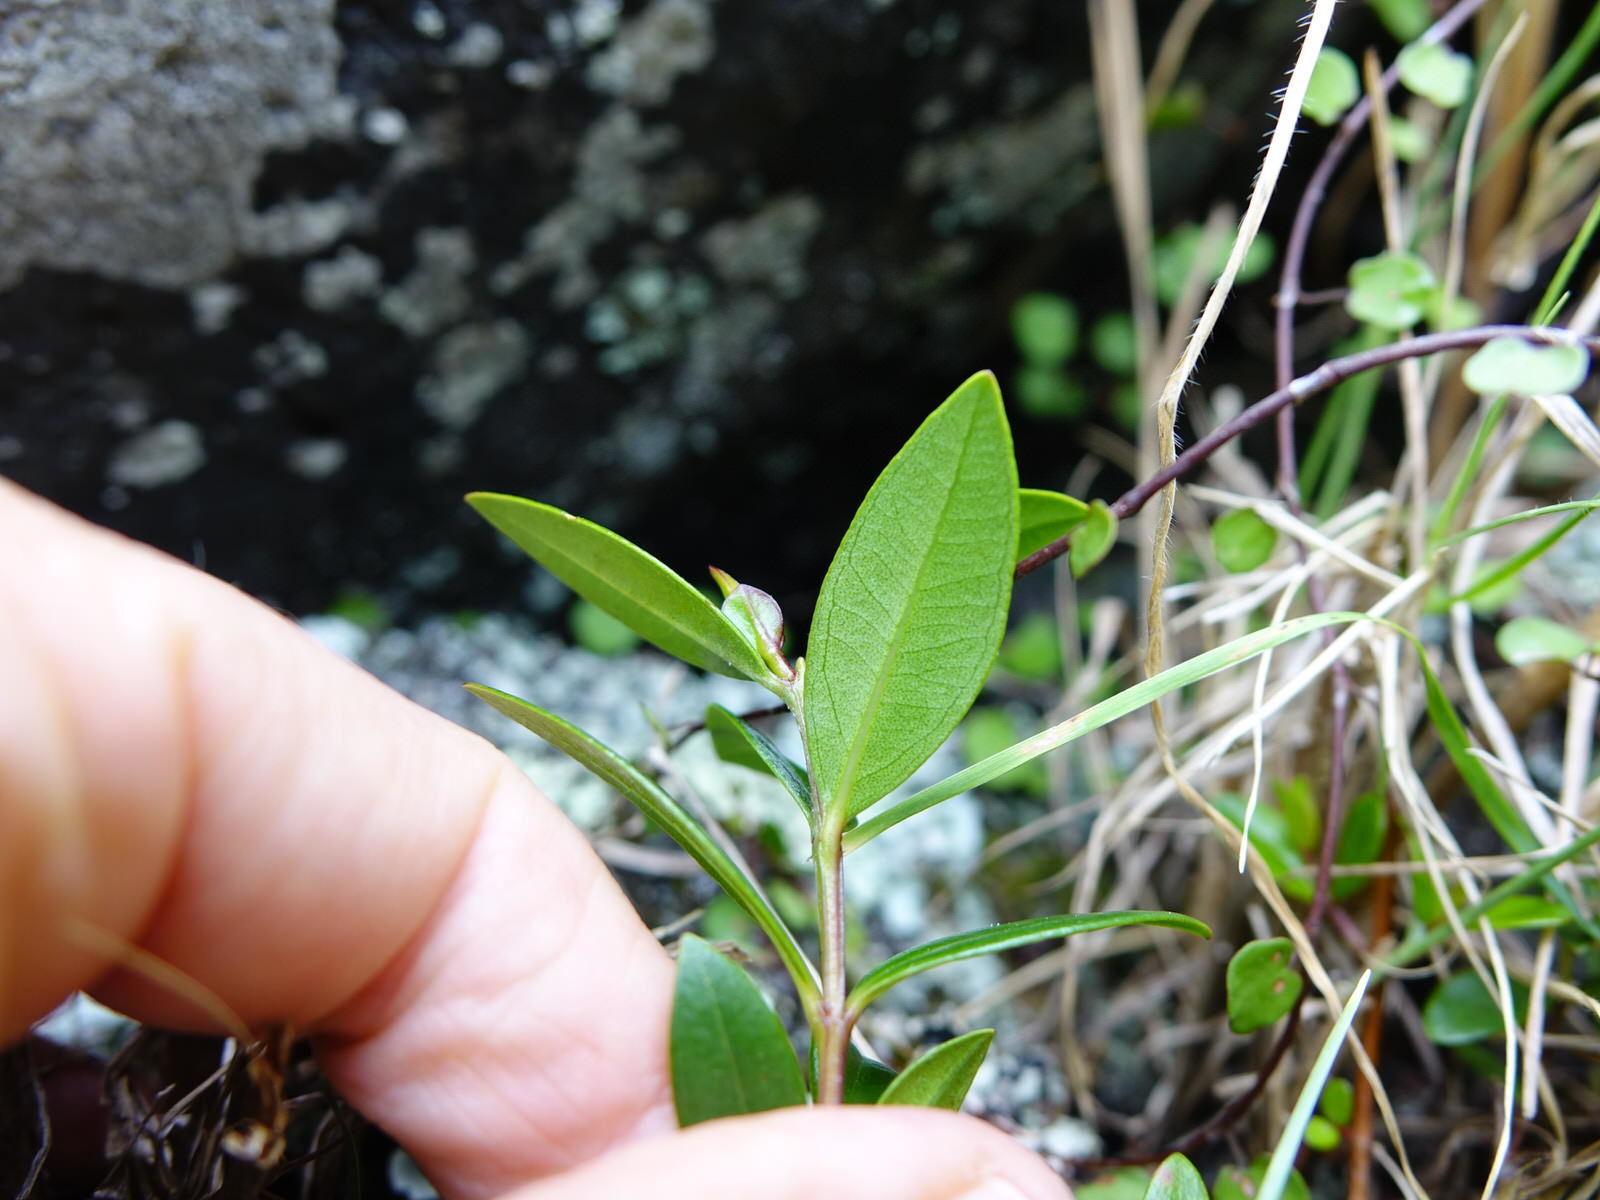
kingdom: Plantae
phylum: Tracheophyta
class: Magnoliopsida
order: Myrtales
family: Myrtaceae
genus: Metrosideros
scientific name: Metrosideros excelsa
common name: New zealand christmastree
